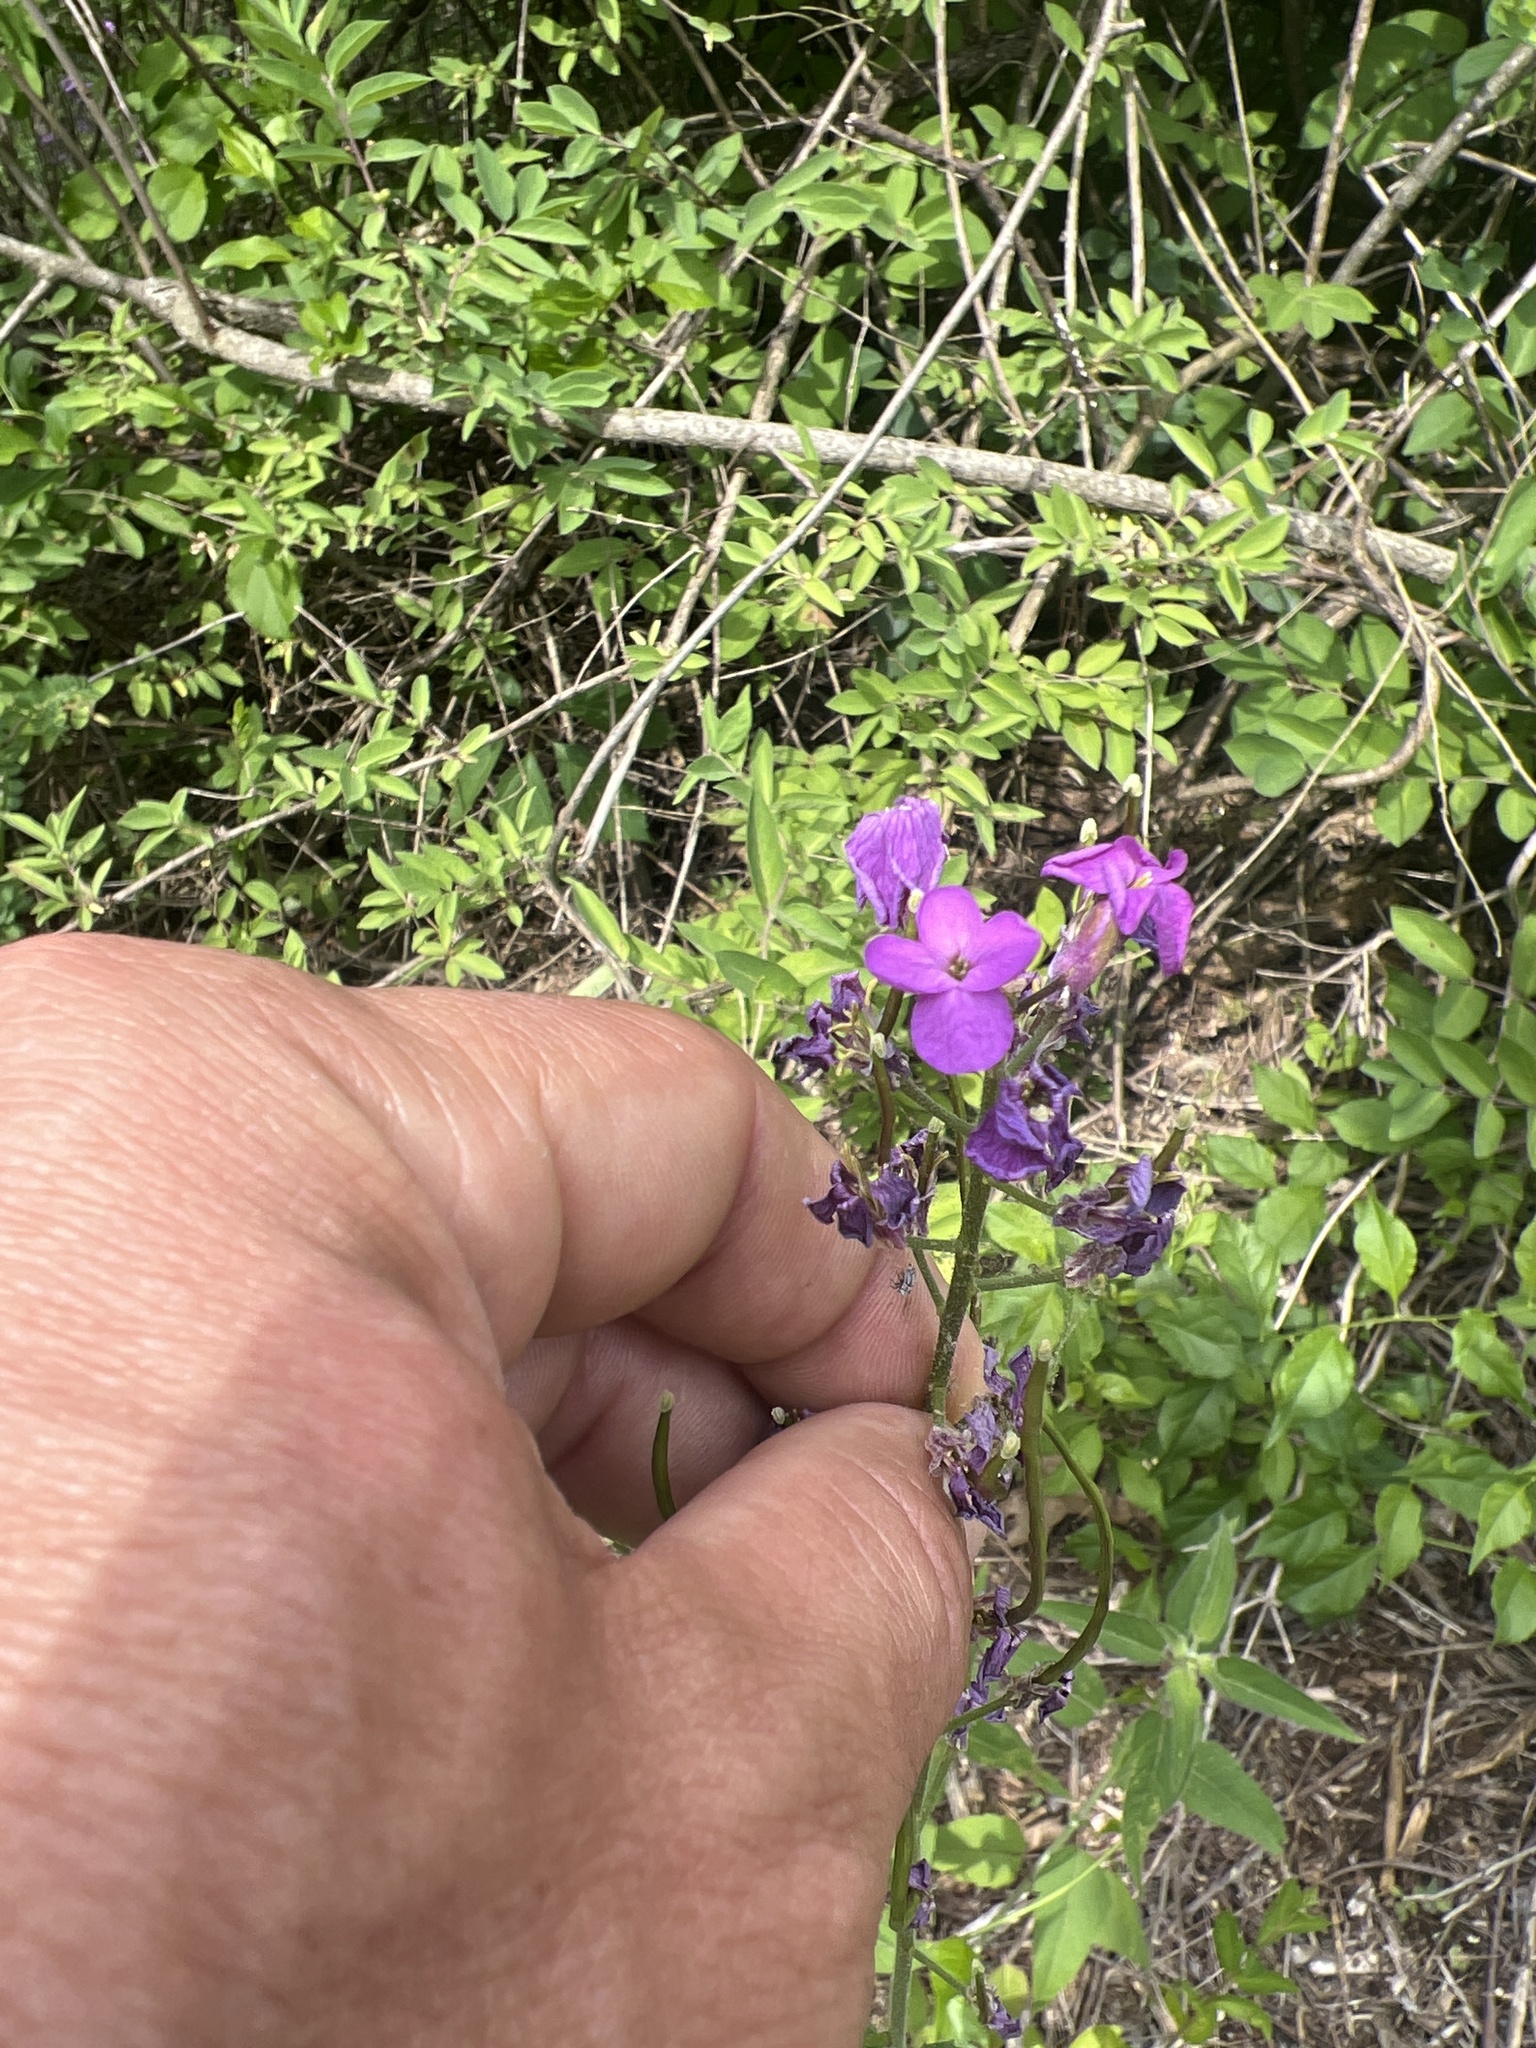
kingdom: Plantae
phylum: Tracheophyta
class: Magnoliopsida
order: Brassicales
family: Brassicaceae
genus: Hesperis
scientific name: Hesperis matronalis
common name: Dame's-violet
